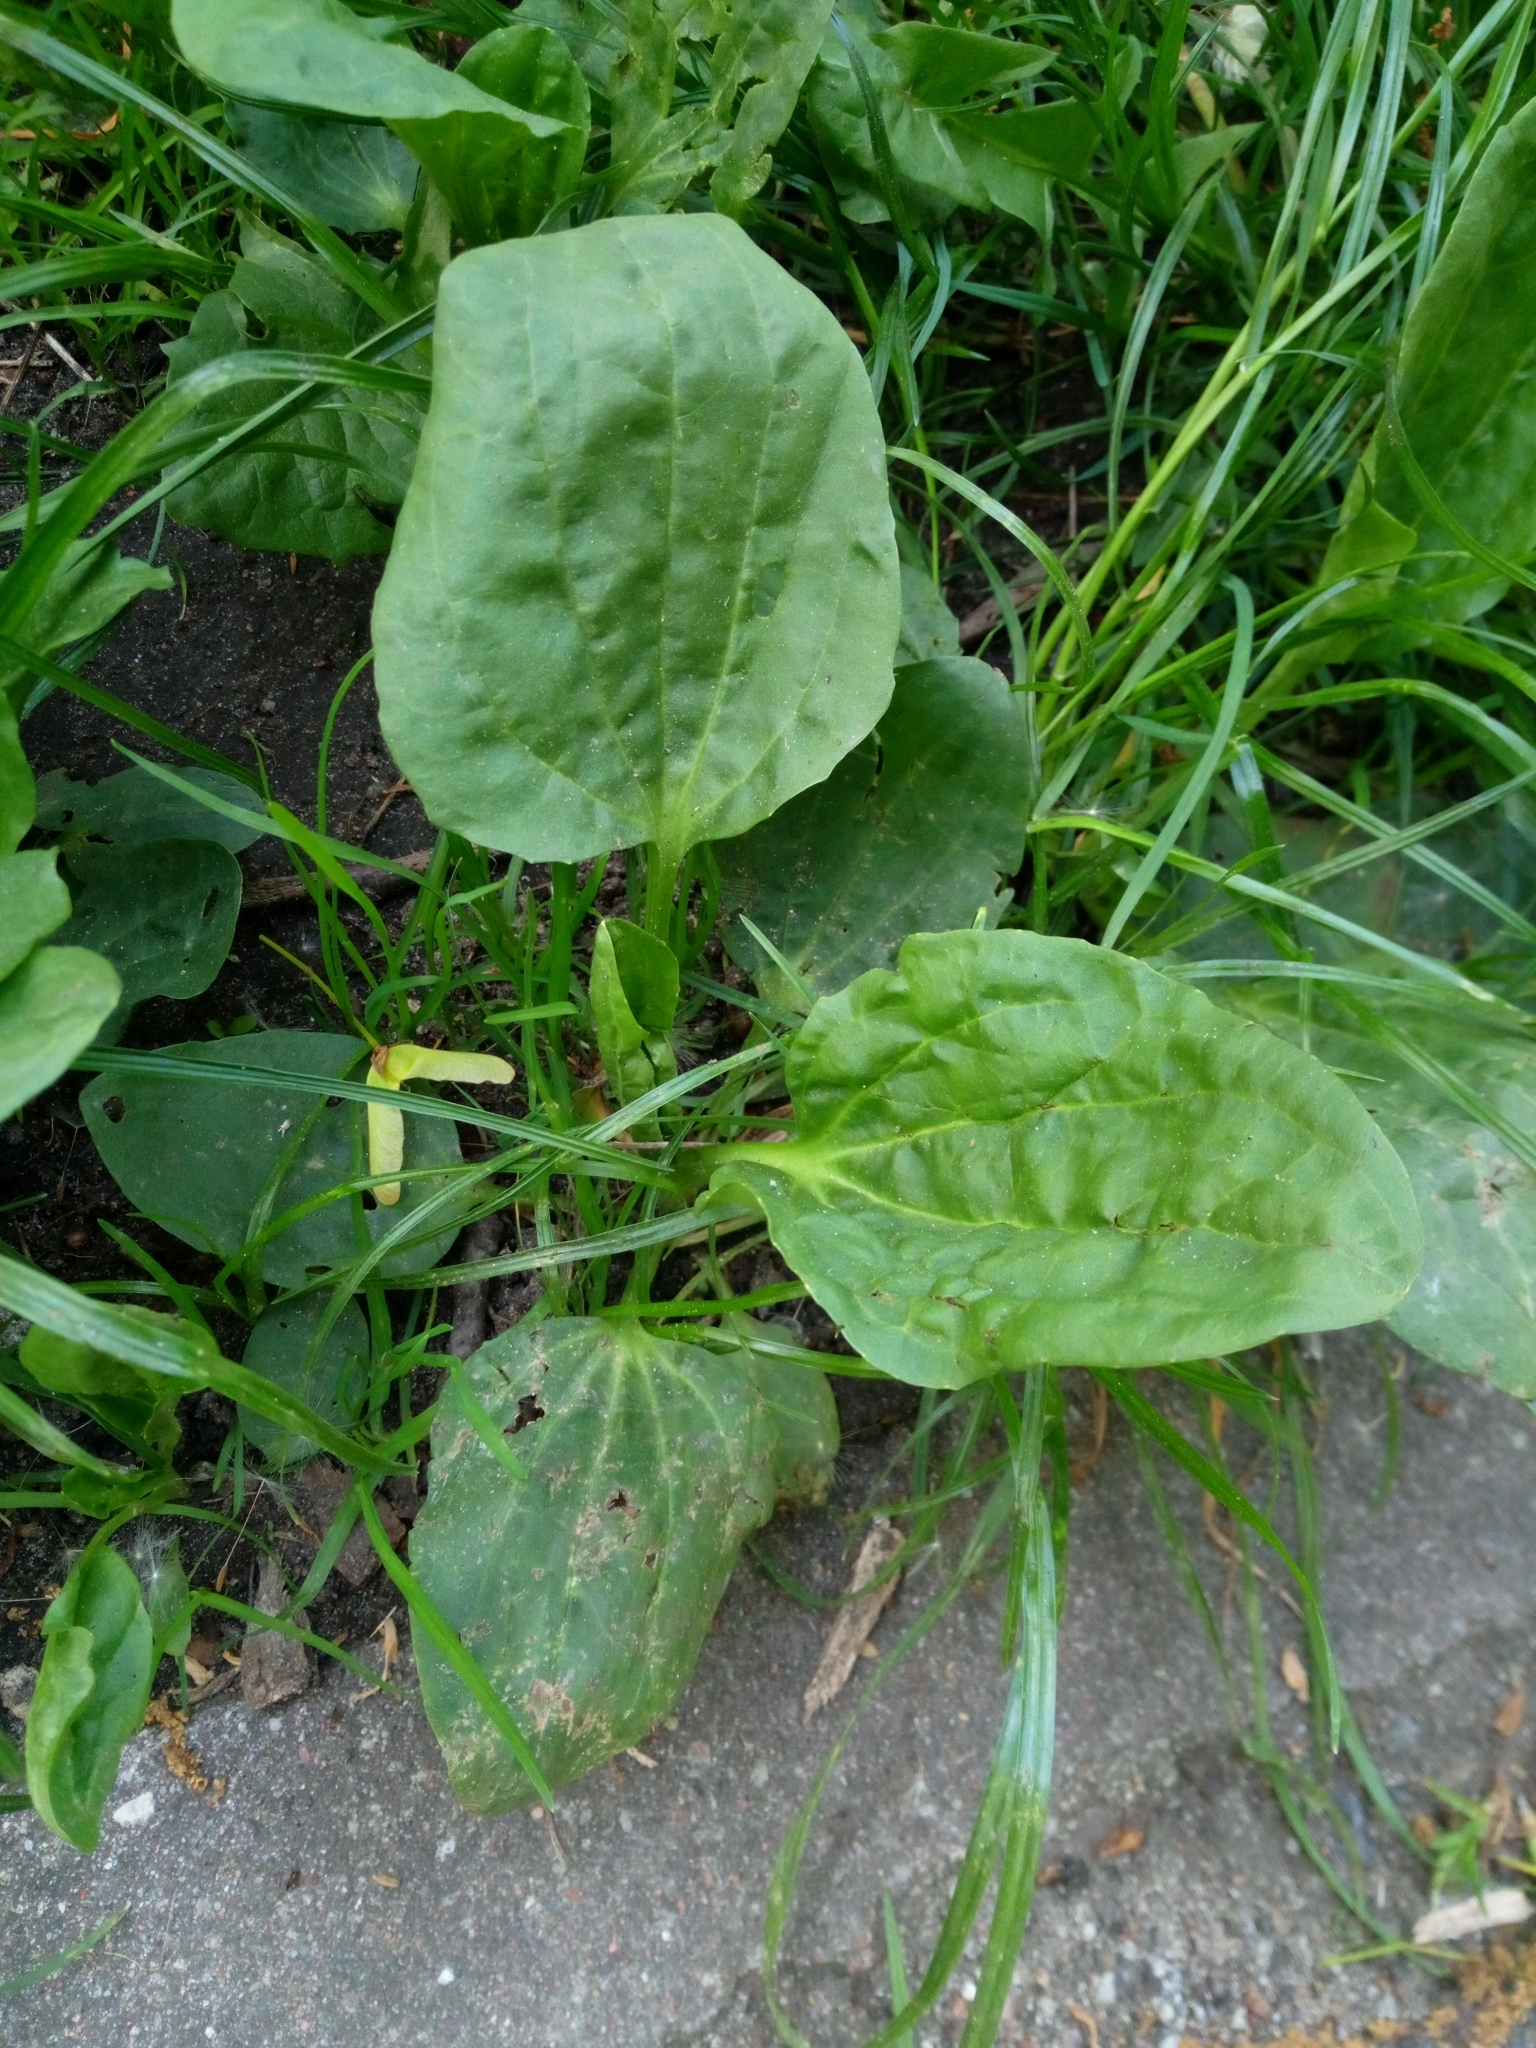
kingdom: Plantae
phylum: Tracheophyta
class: Magnoliopsida
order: Lamiales
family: Plantaginaceae
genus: Plantago
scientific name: Plantago major
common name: Common plantain
